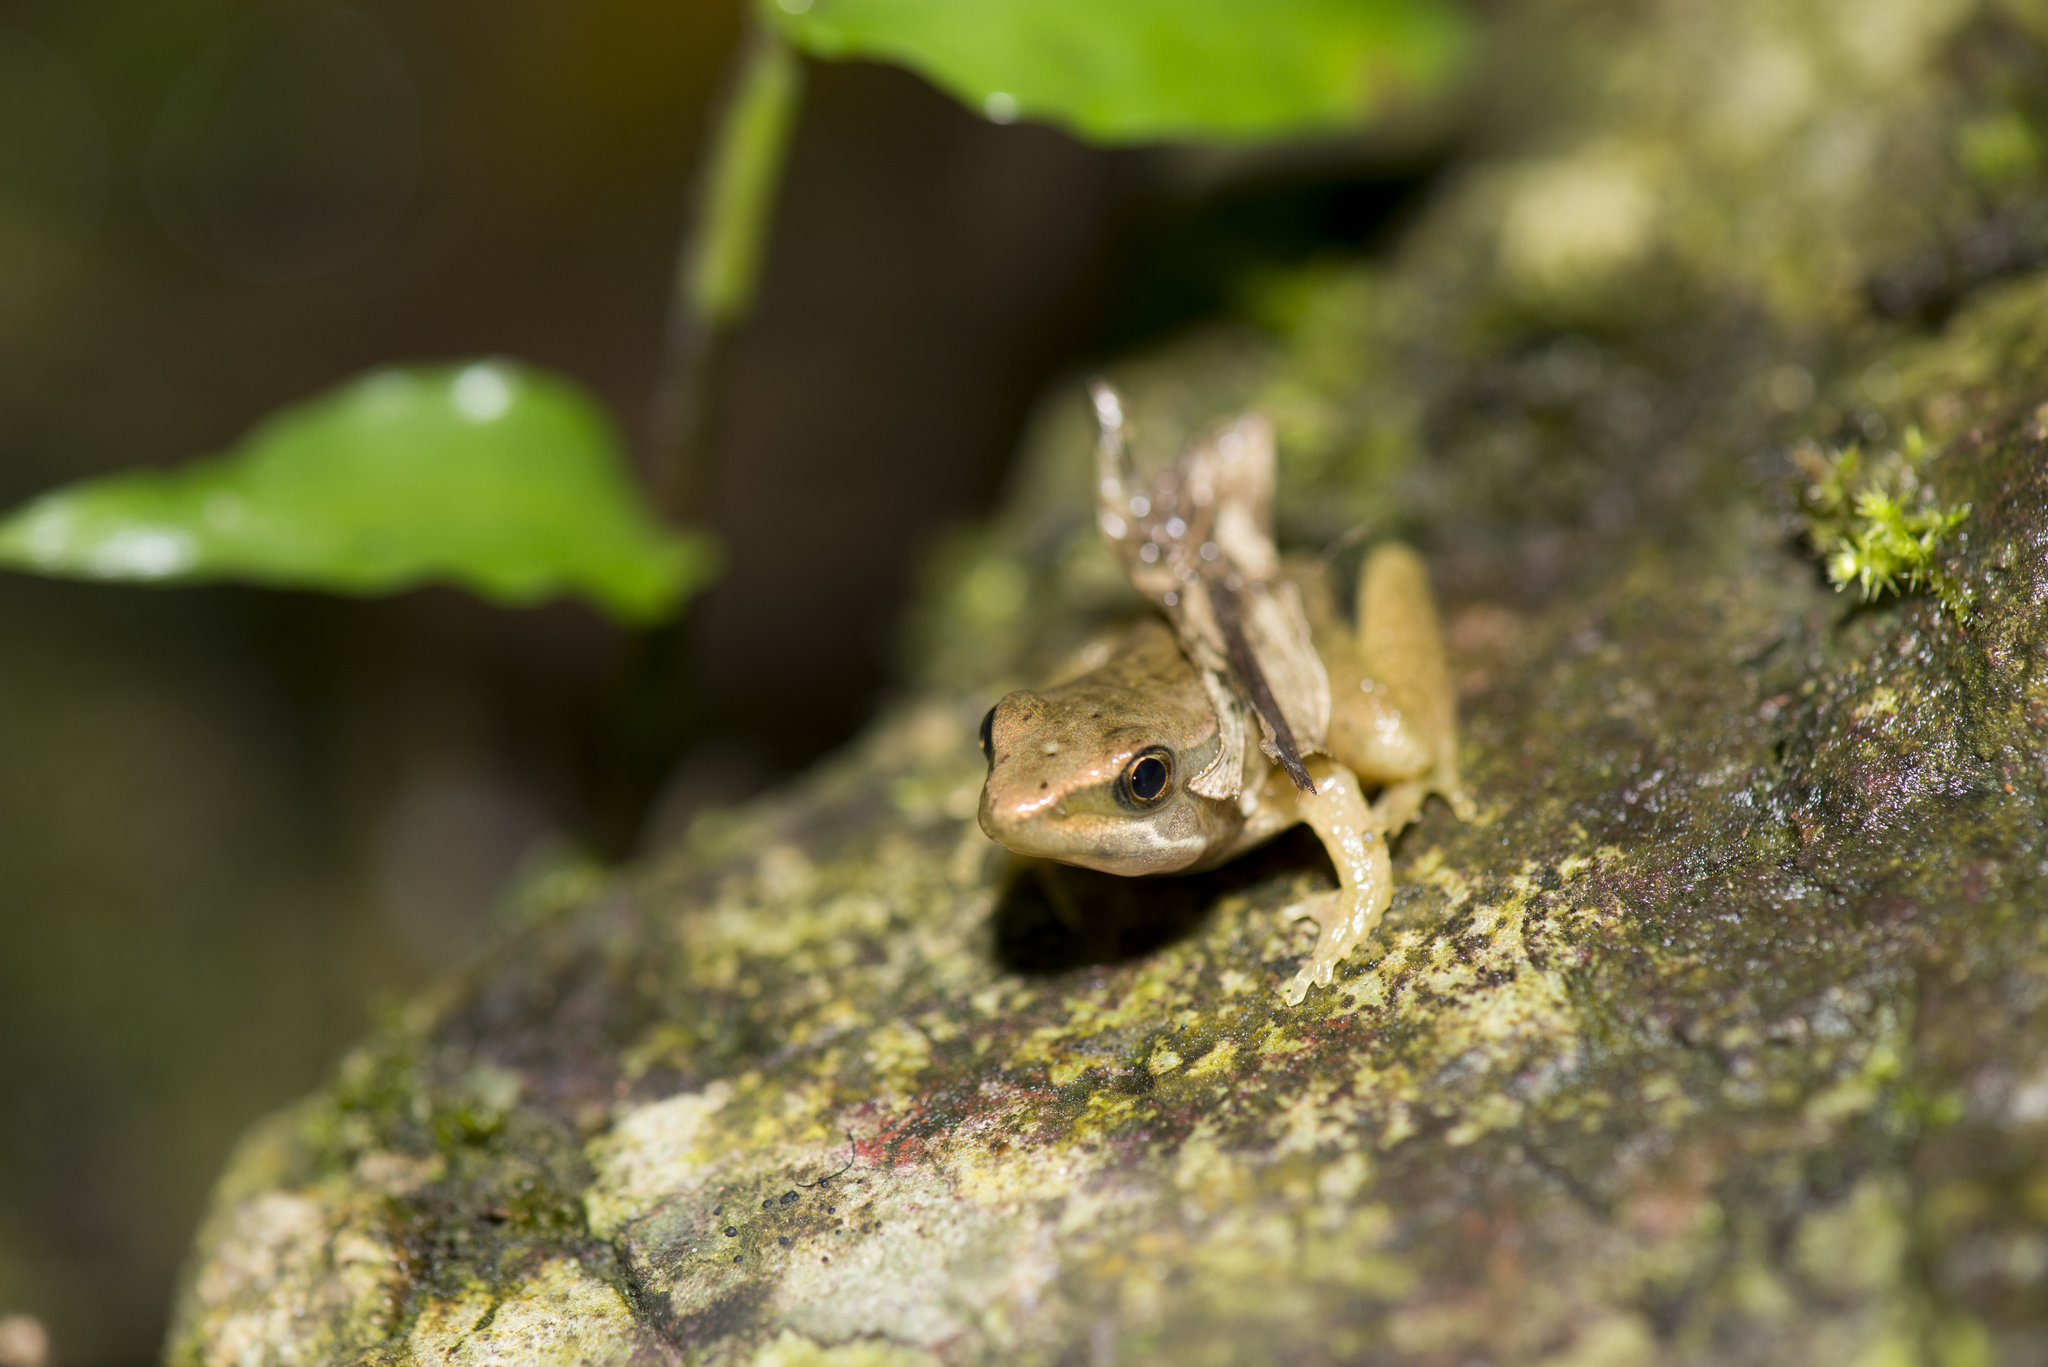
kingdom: Animalia
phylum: Chordata
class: Amphibia
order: Anura
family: Ranidae
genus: Nidirana
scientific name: Nidirana adenopleura
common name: Olive frog
